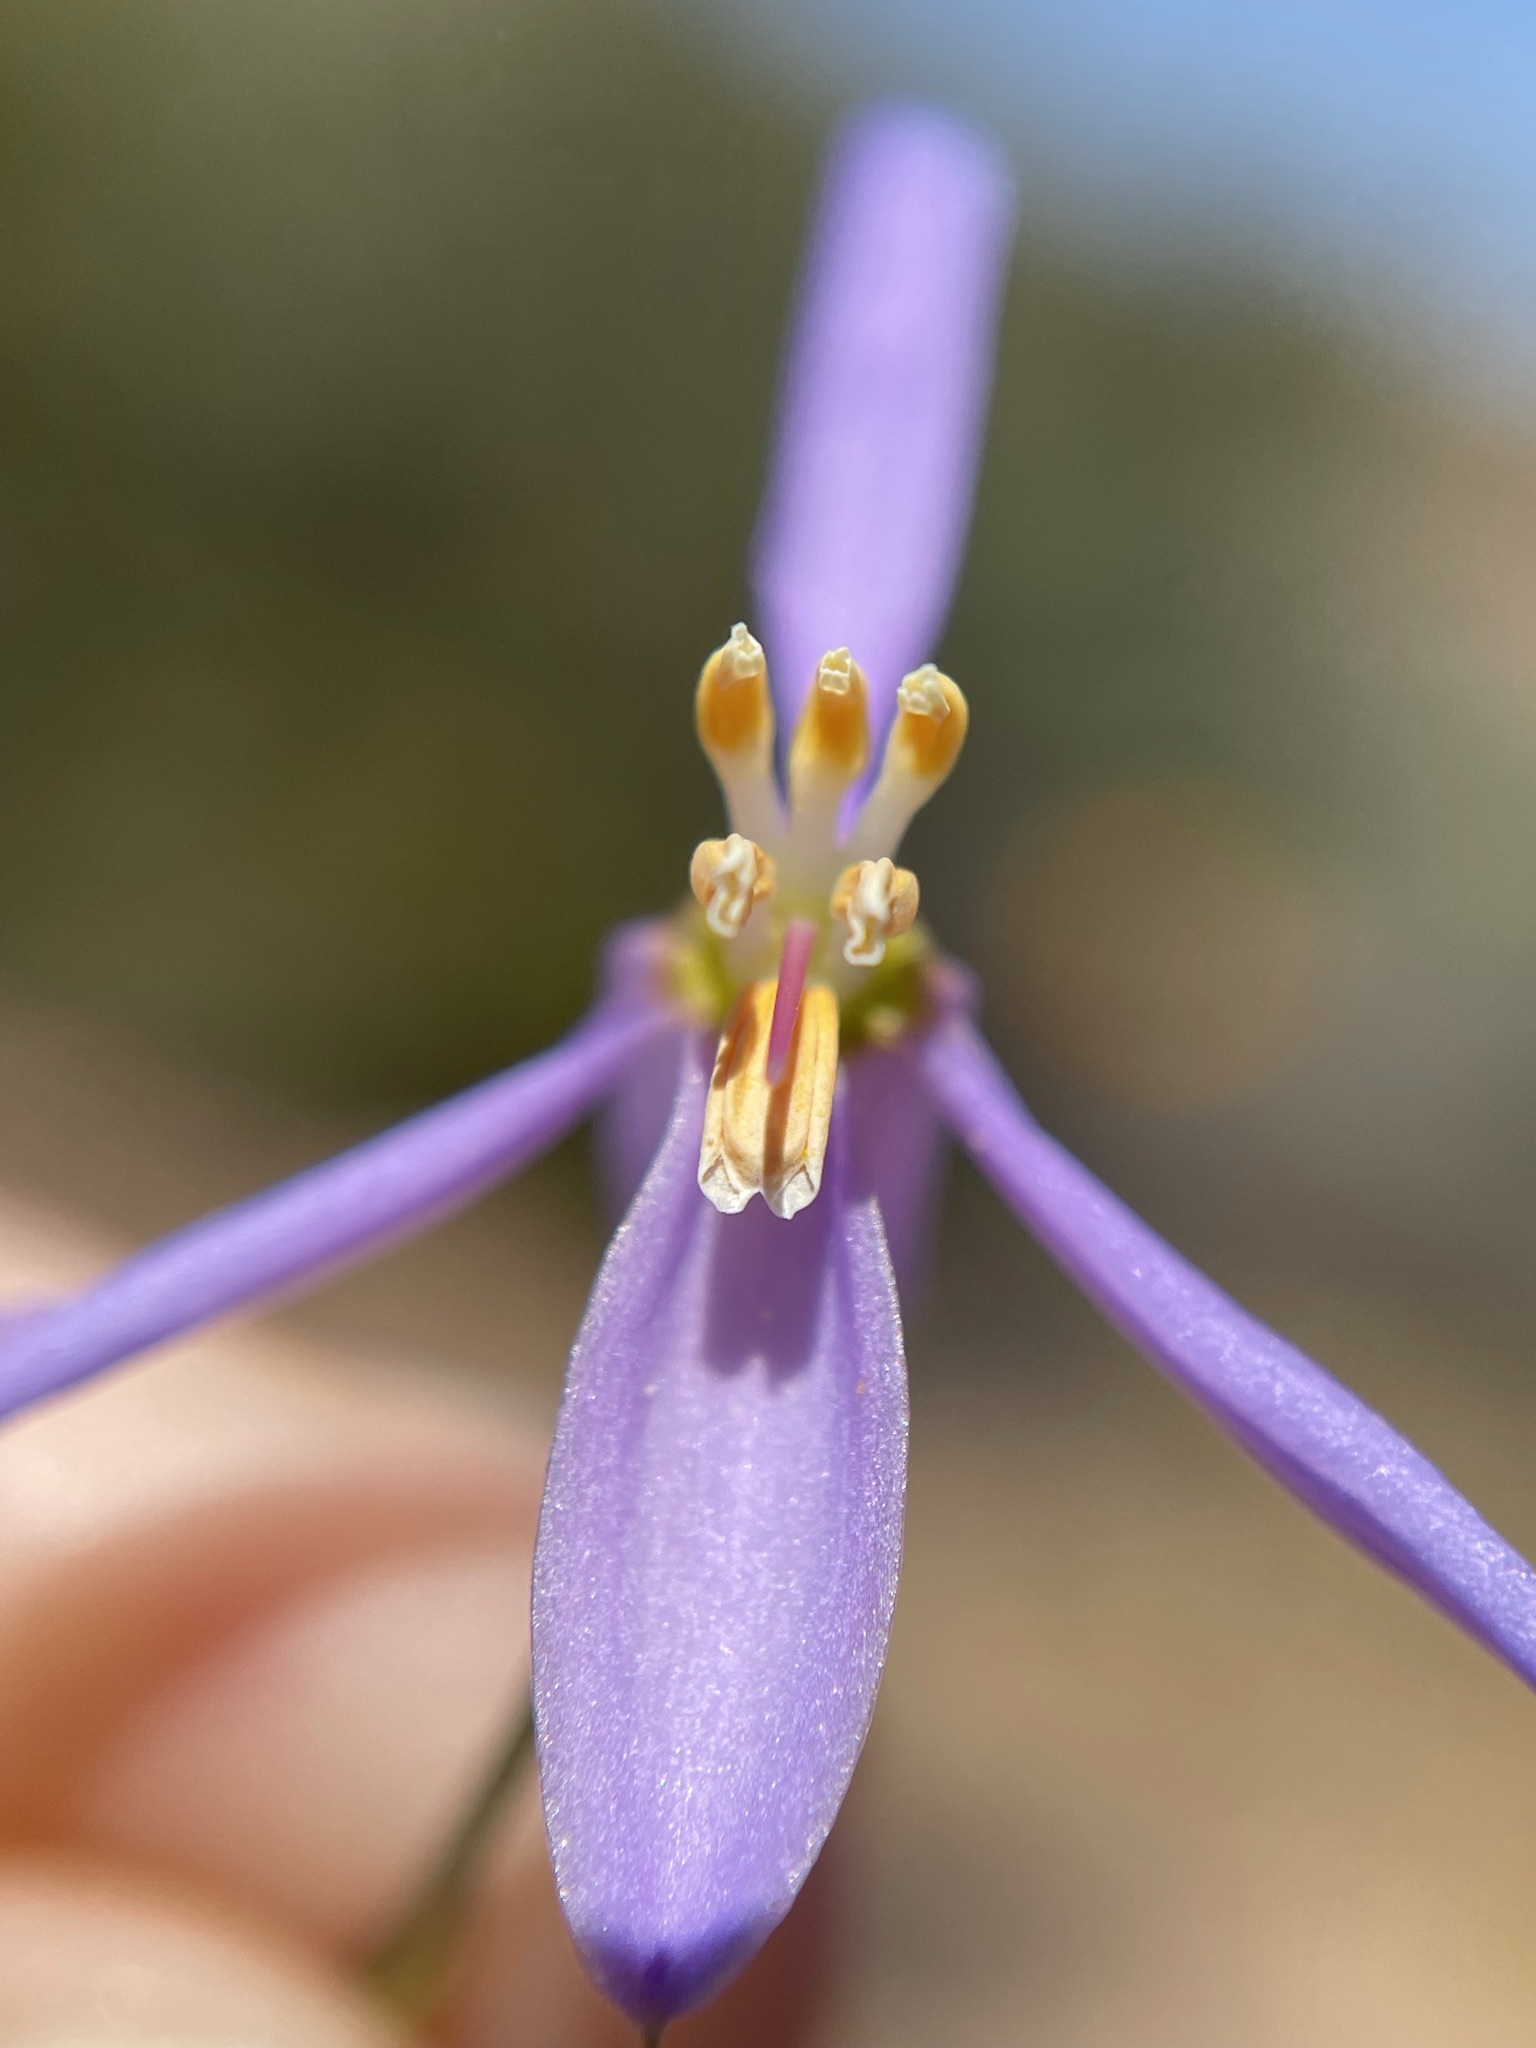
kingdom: Plantae
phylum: Tracheophyta
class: Liliopsida
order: Asparagales
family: Tecophilaeaceae
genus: Cyanella
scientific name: Cyanella hyacinthoides
